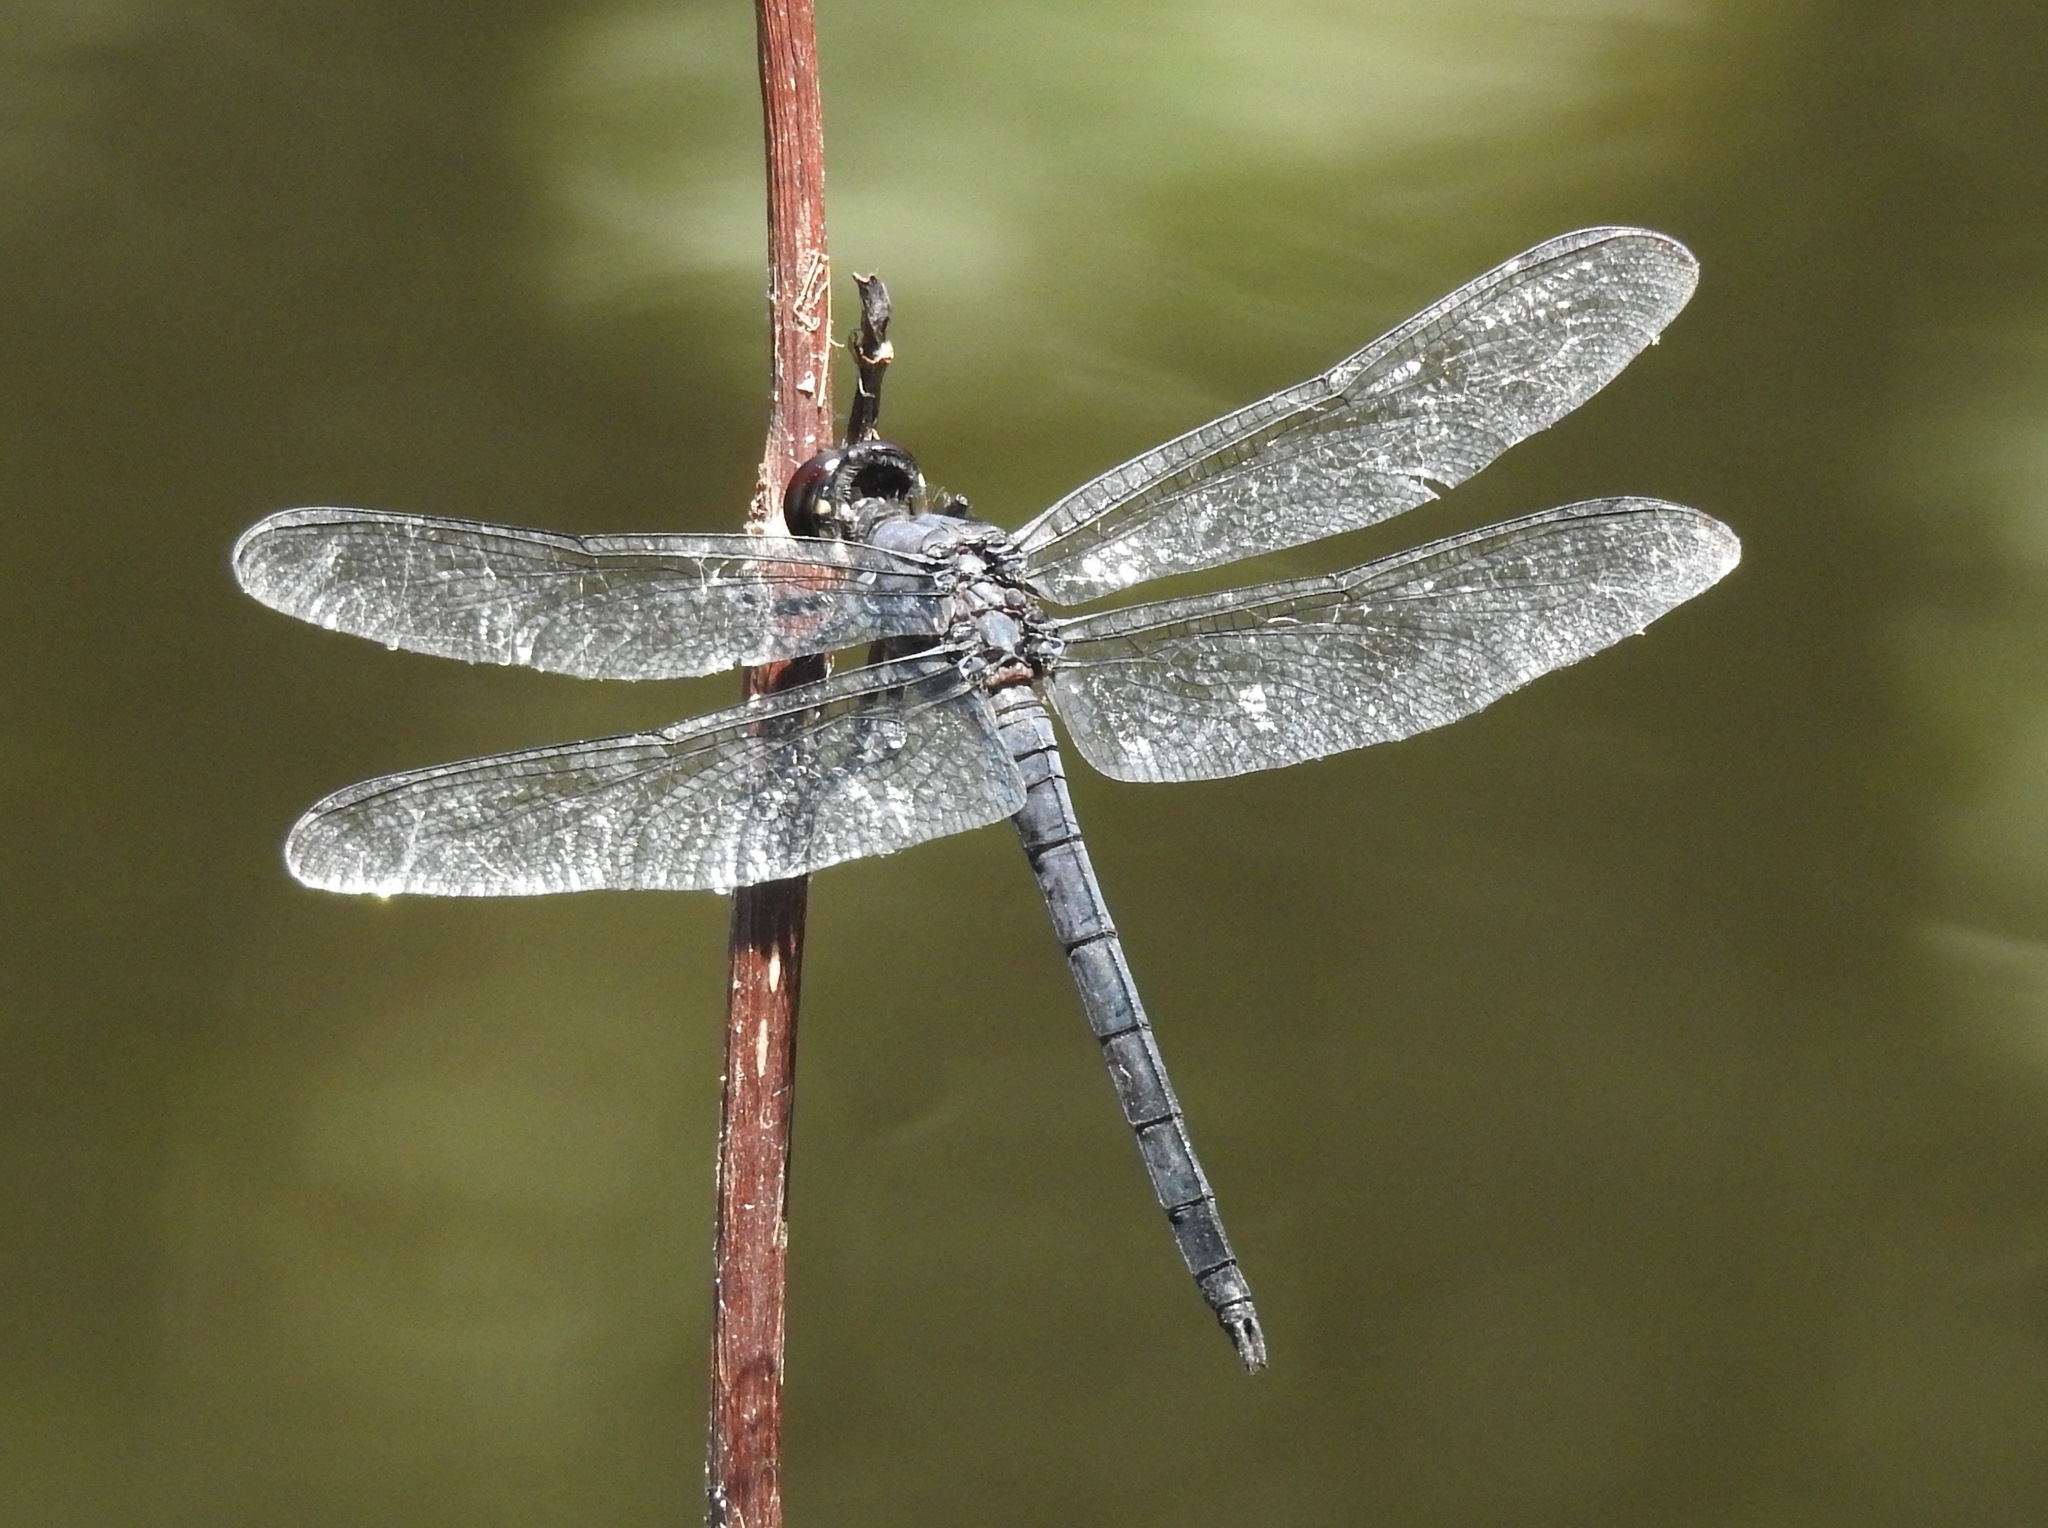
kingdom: Animalia
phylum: Arthropoda
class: Insecta
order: Odonata
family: Libellulidae
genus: Libellula
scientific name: Libellula incesta
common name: Slaty skimmer
